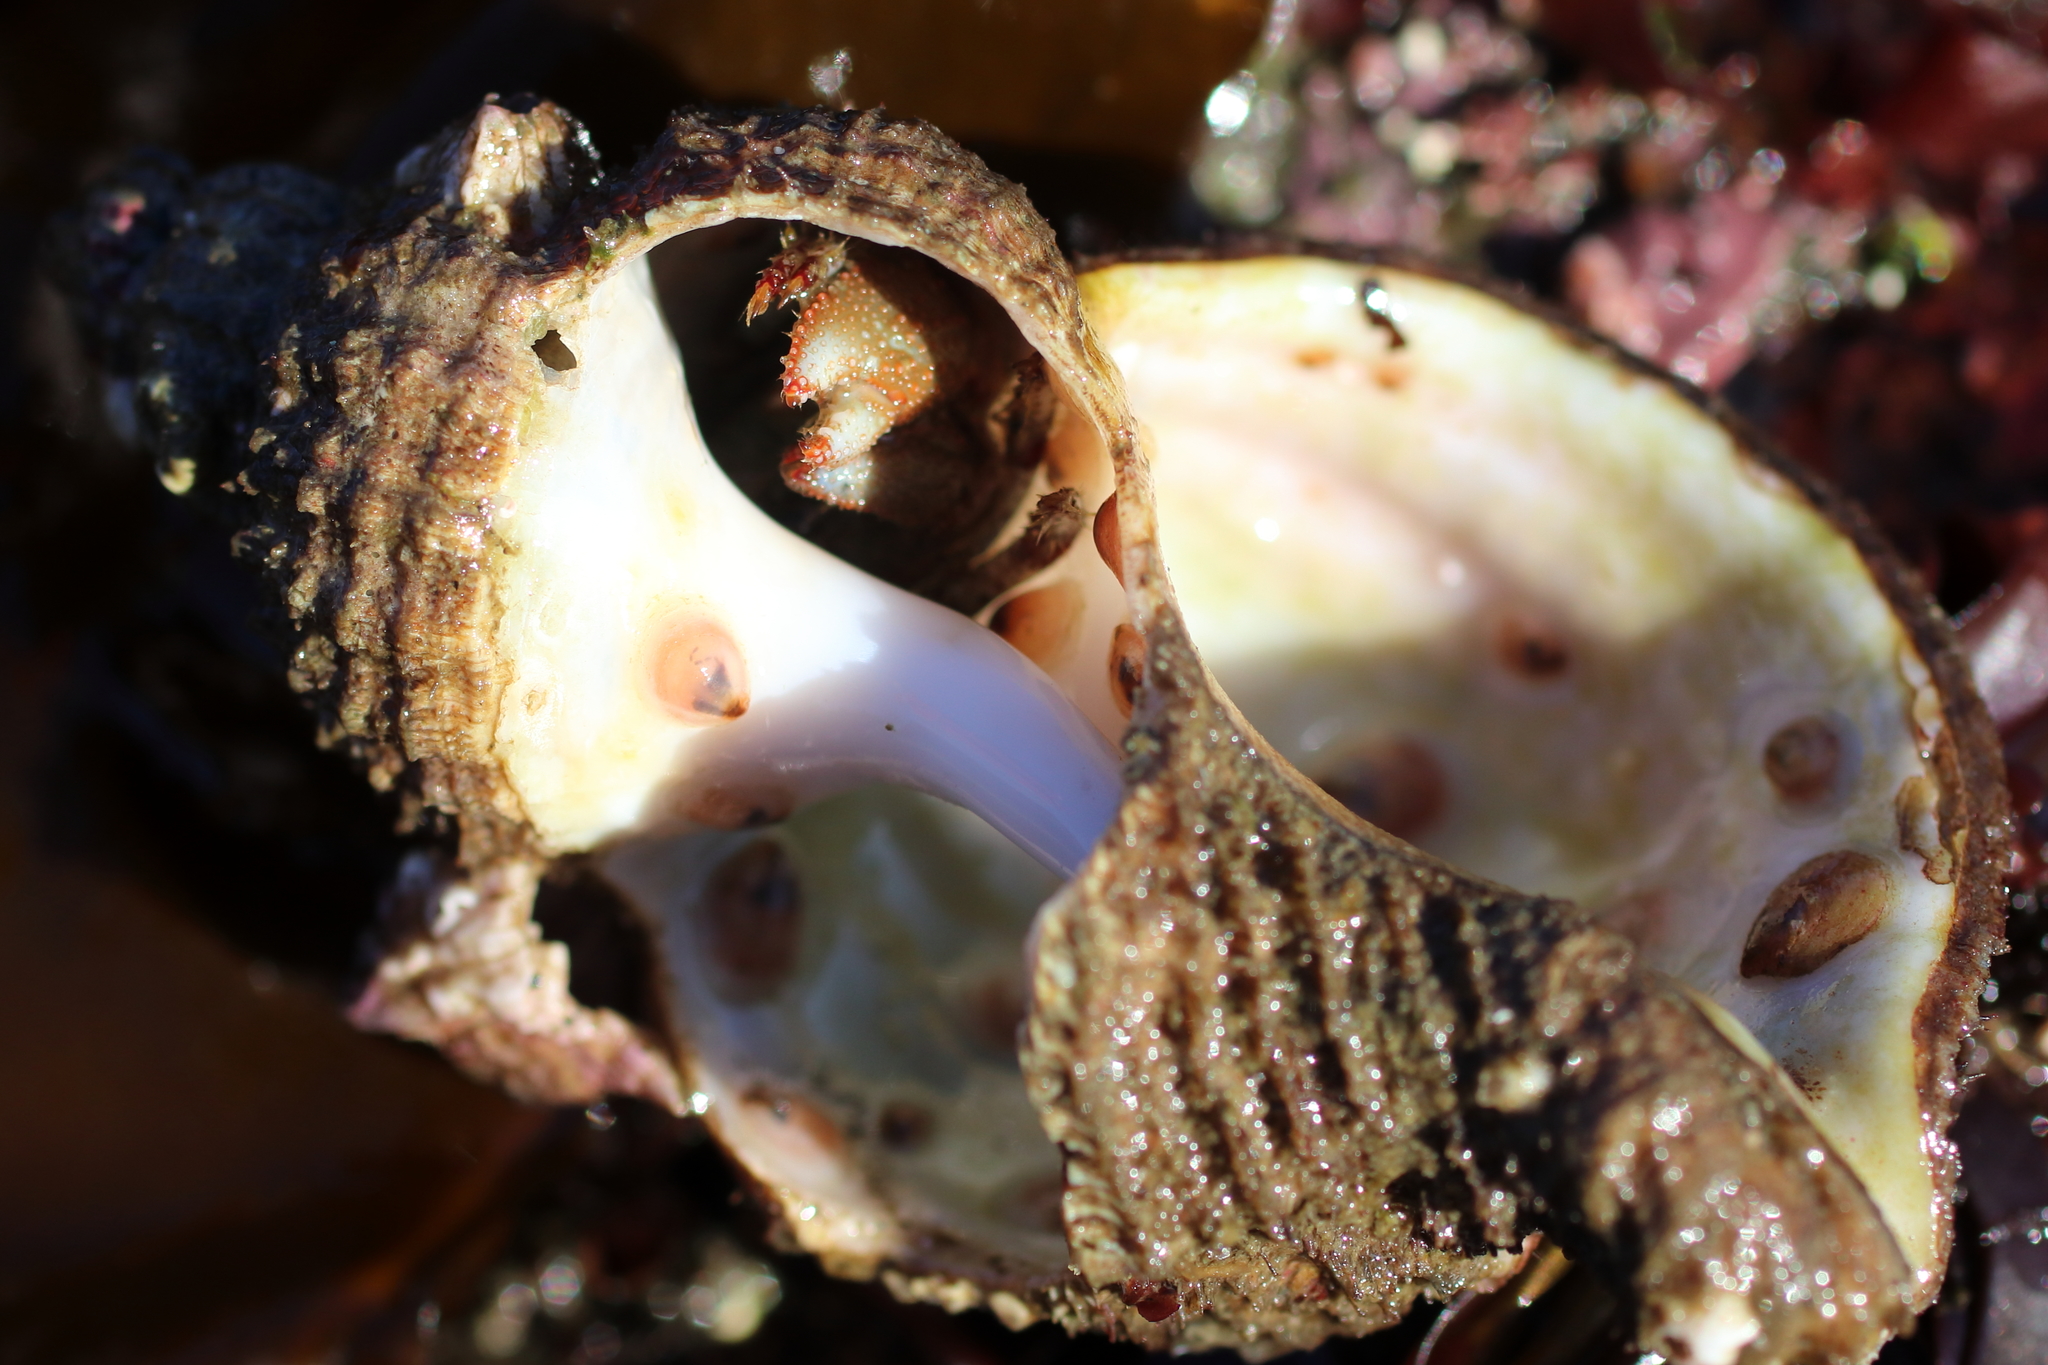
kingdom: Animalia
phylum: Arthropoda
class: Malacostraca
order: Decapoda
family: Paguridae
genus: Pagurus
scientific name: Pagurus beringanus
